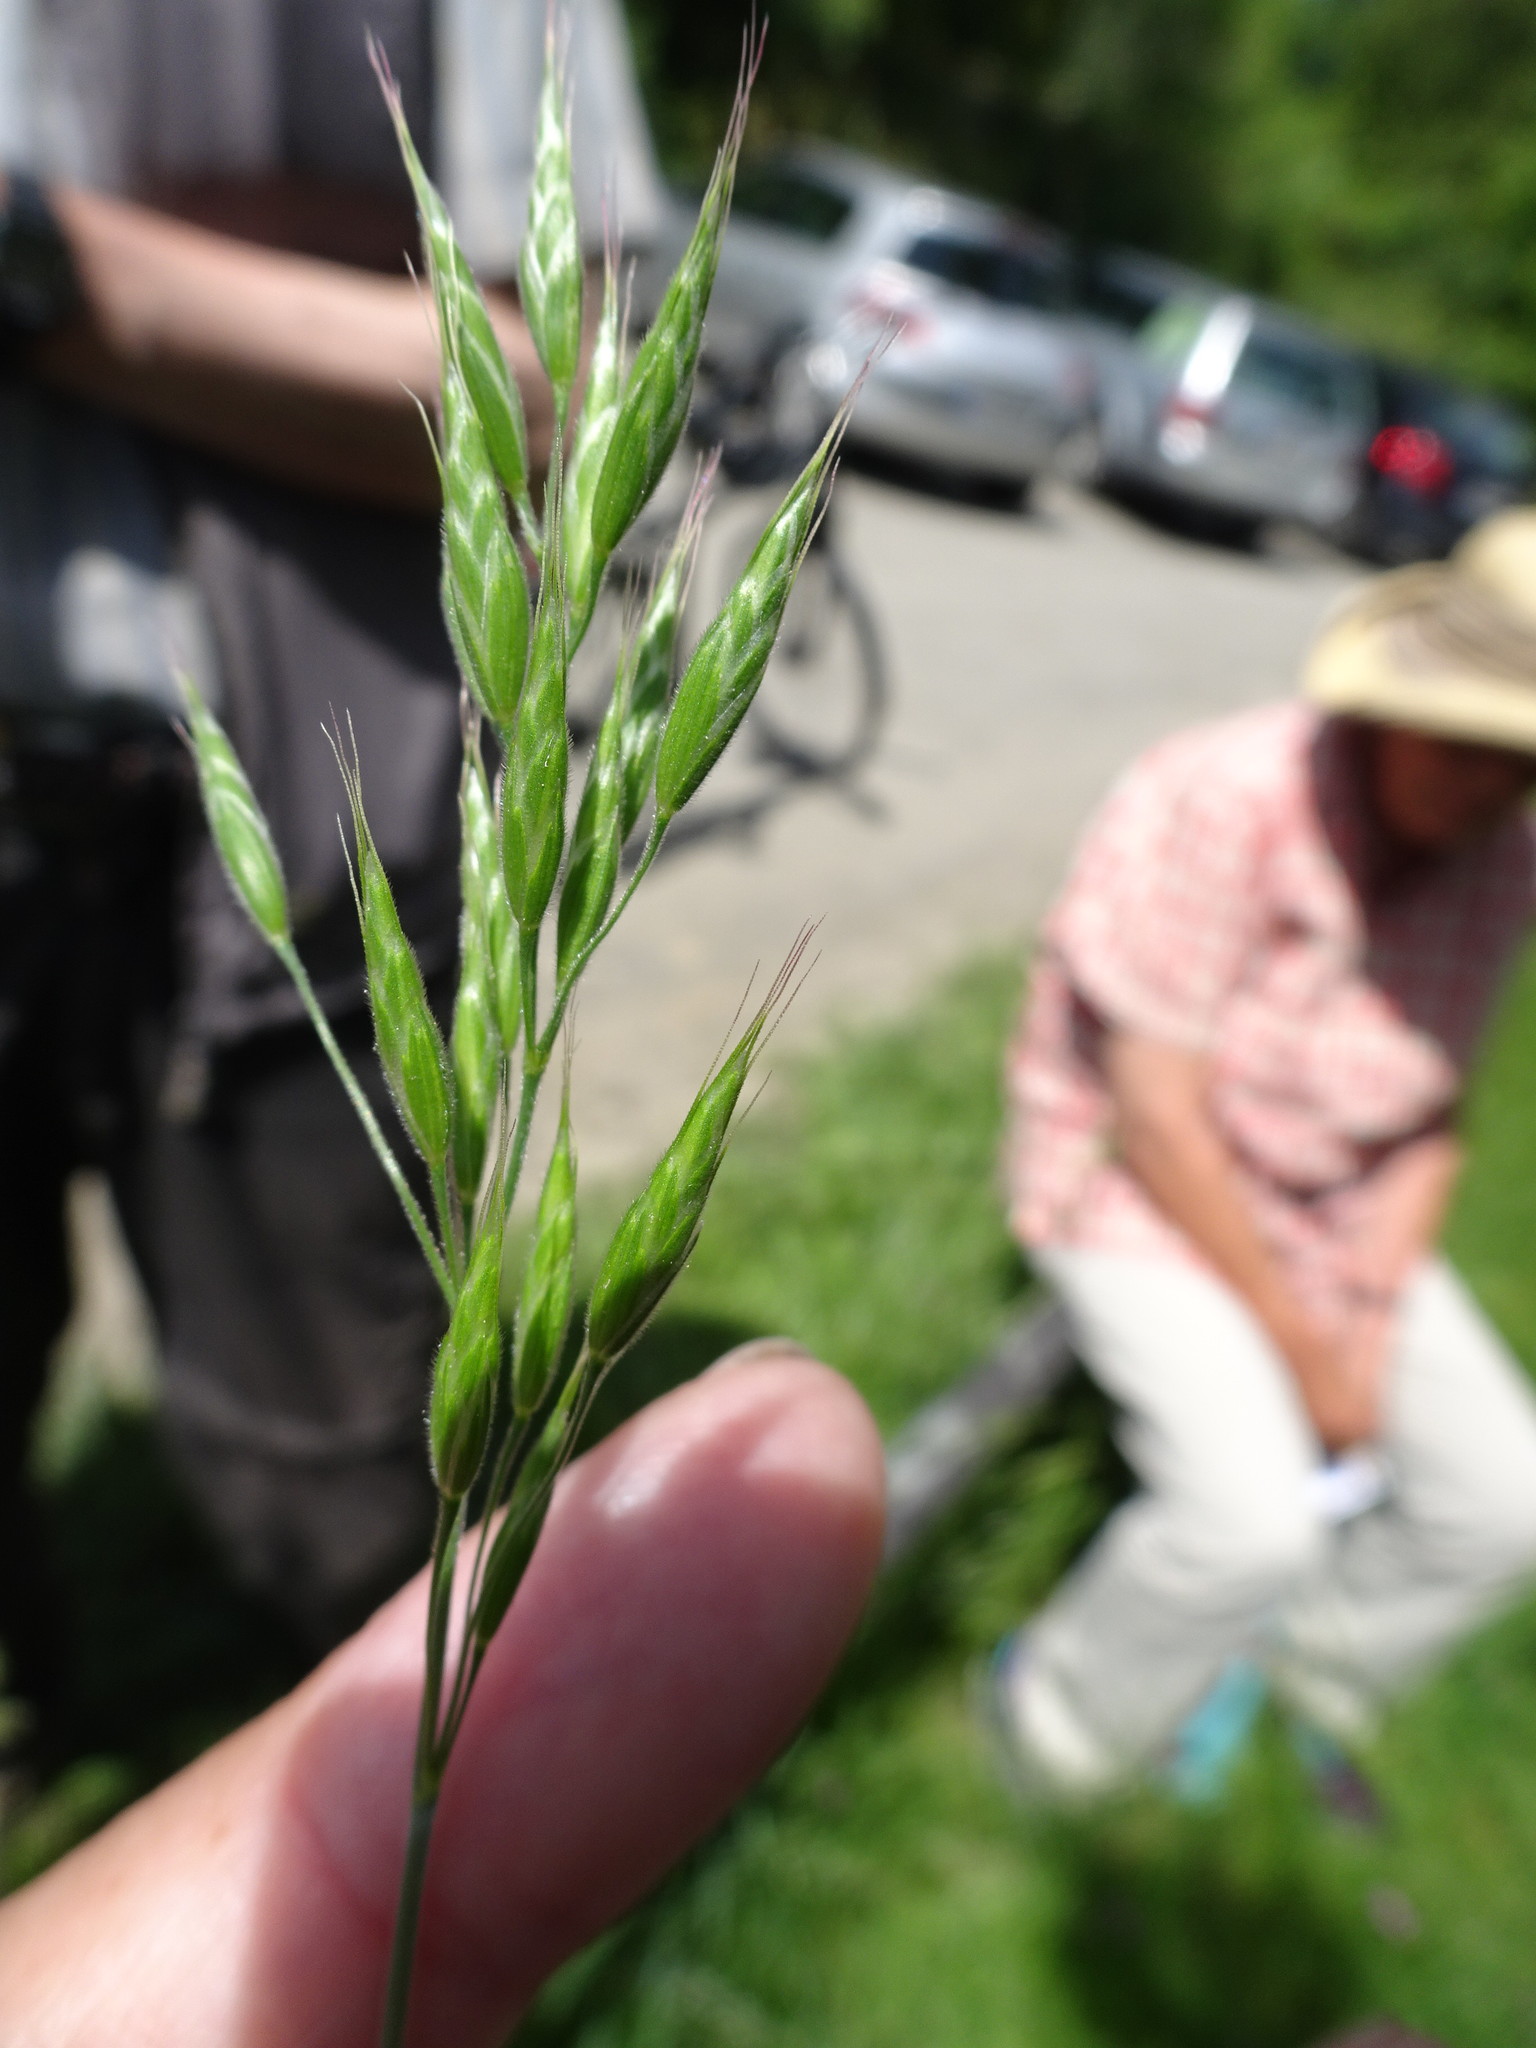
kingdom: Plantae
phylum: Tracheophyta
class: Liliopsida
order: Poales
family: Poaceae
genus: Bromus
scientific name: Bromus hordeaceus
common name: Soft brome
